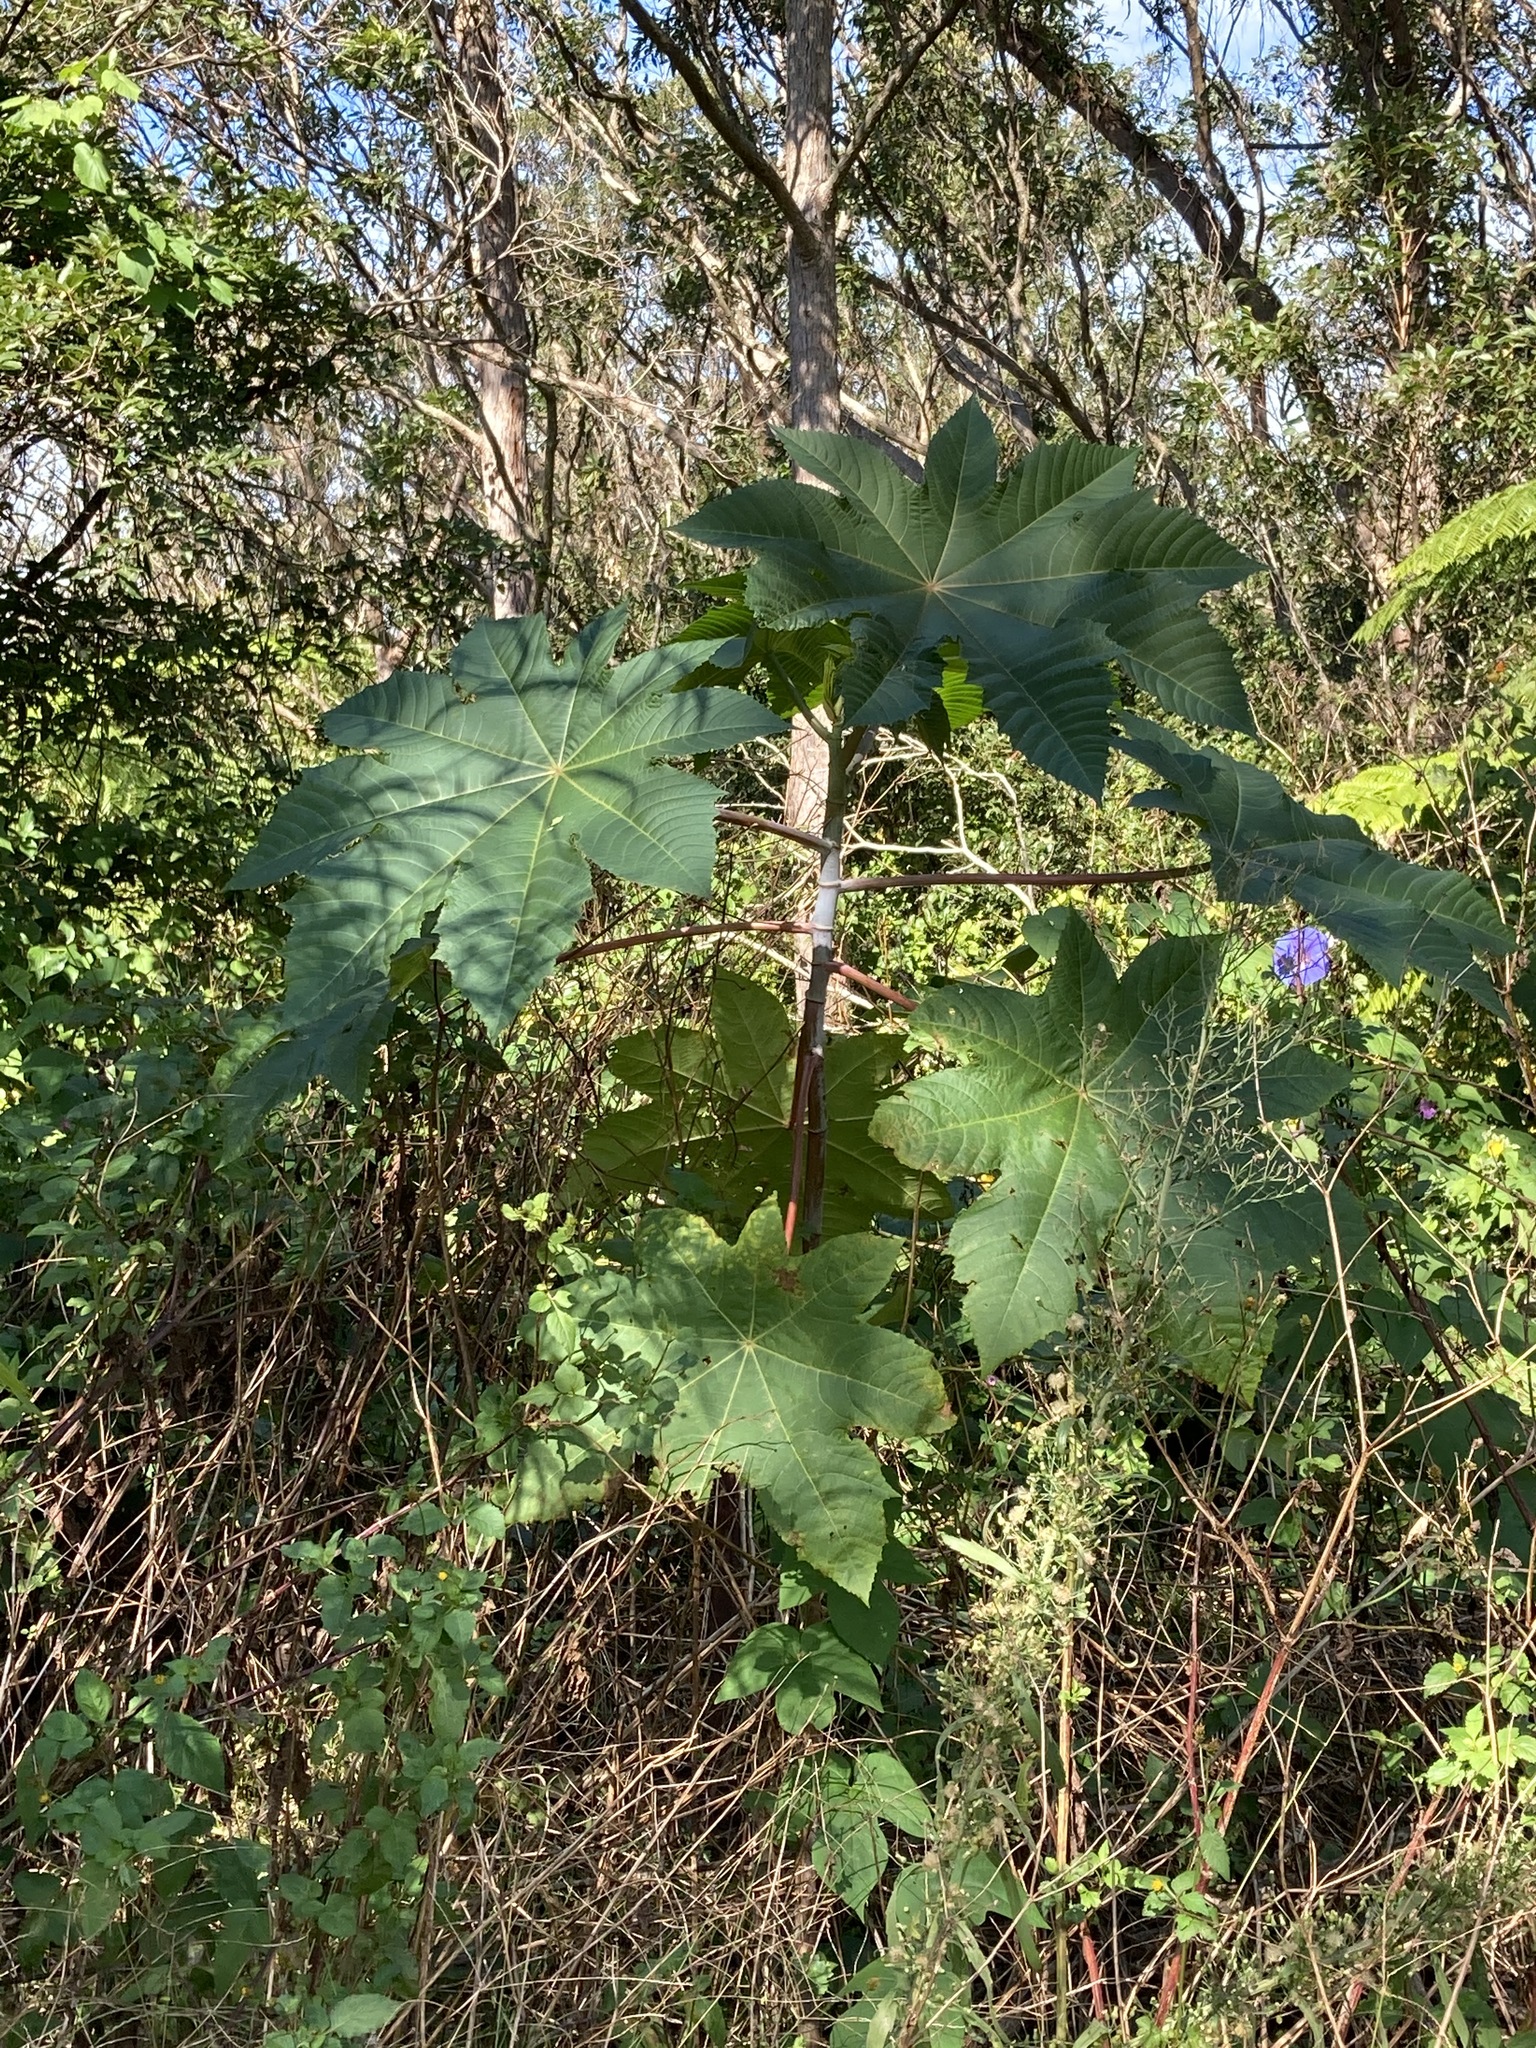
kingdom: Plantae
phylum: Tracheophyta
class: Magnoliopsida
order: Malpighiales
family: Euphorbiaceae
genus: Ricinus
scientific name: Ricinus communis
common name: Castor-oil-plant
